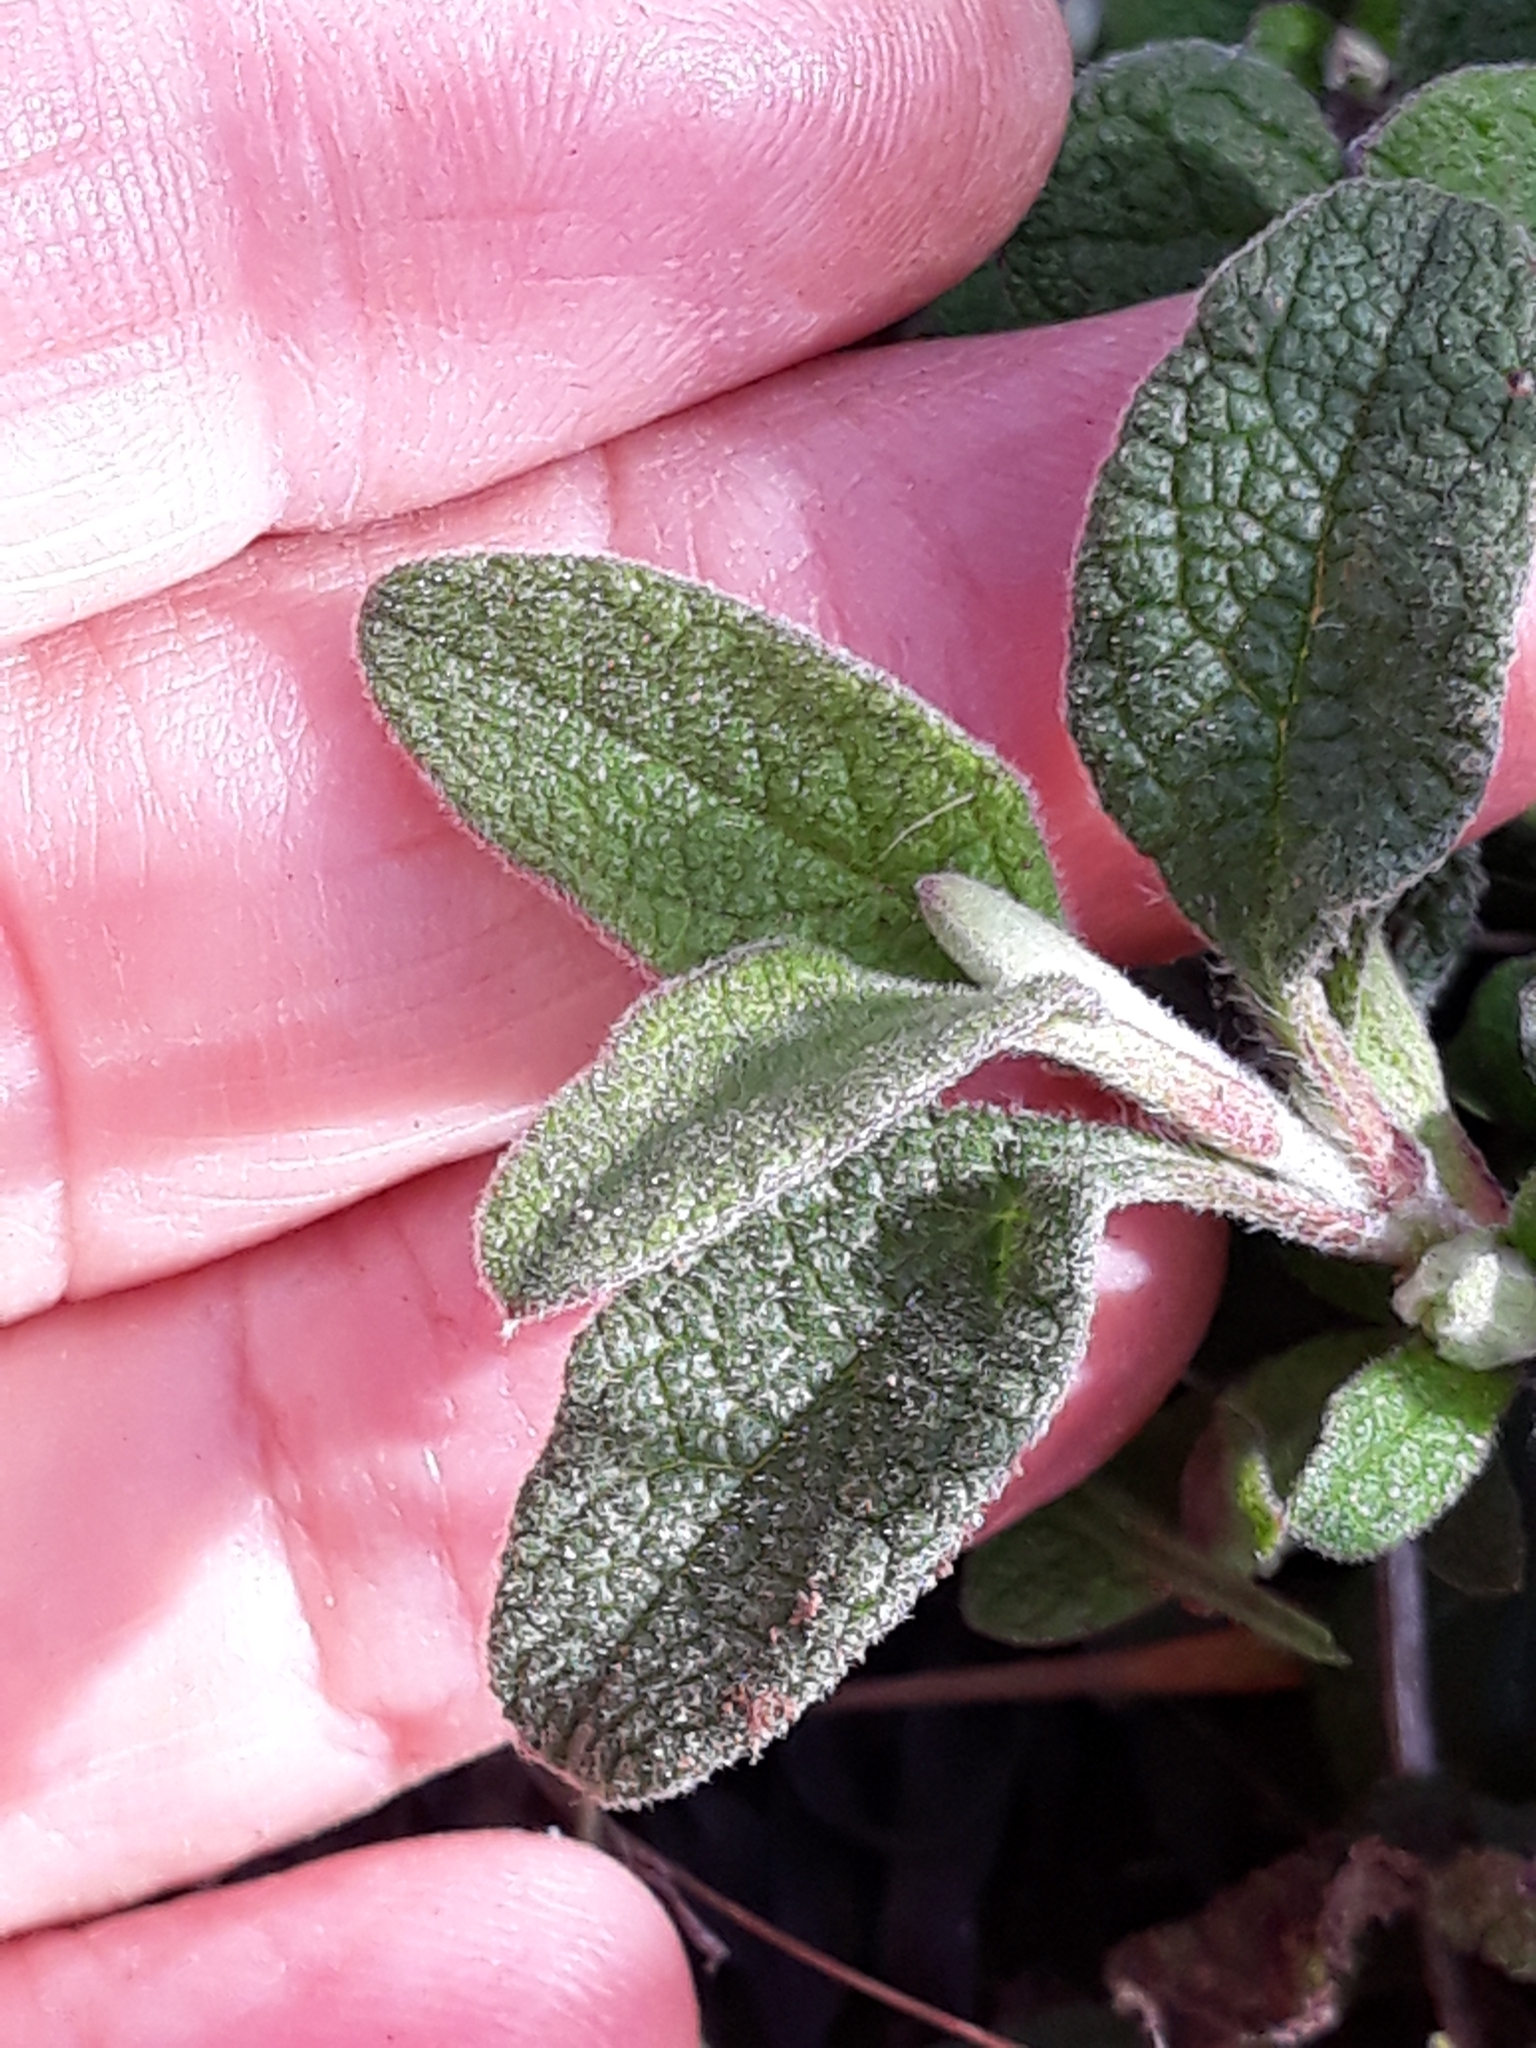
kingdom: Plantae
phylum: Tracheophyta
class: Magnoliopsida
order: Malvales
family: Cistaceae
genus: Cistus
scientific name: Cistus salviifolius
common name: Salvia cistus
